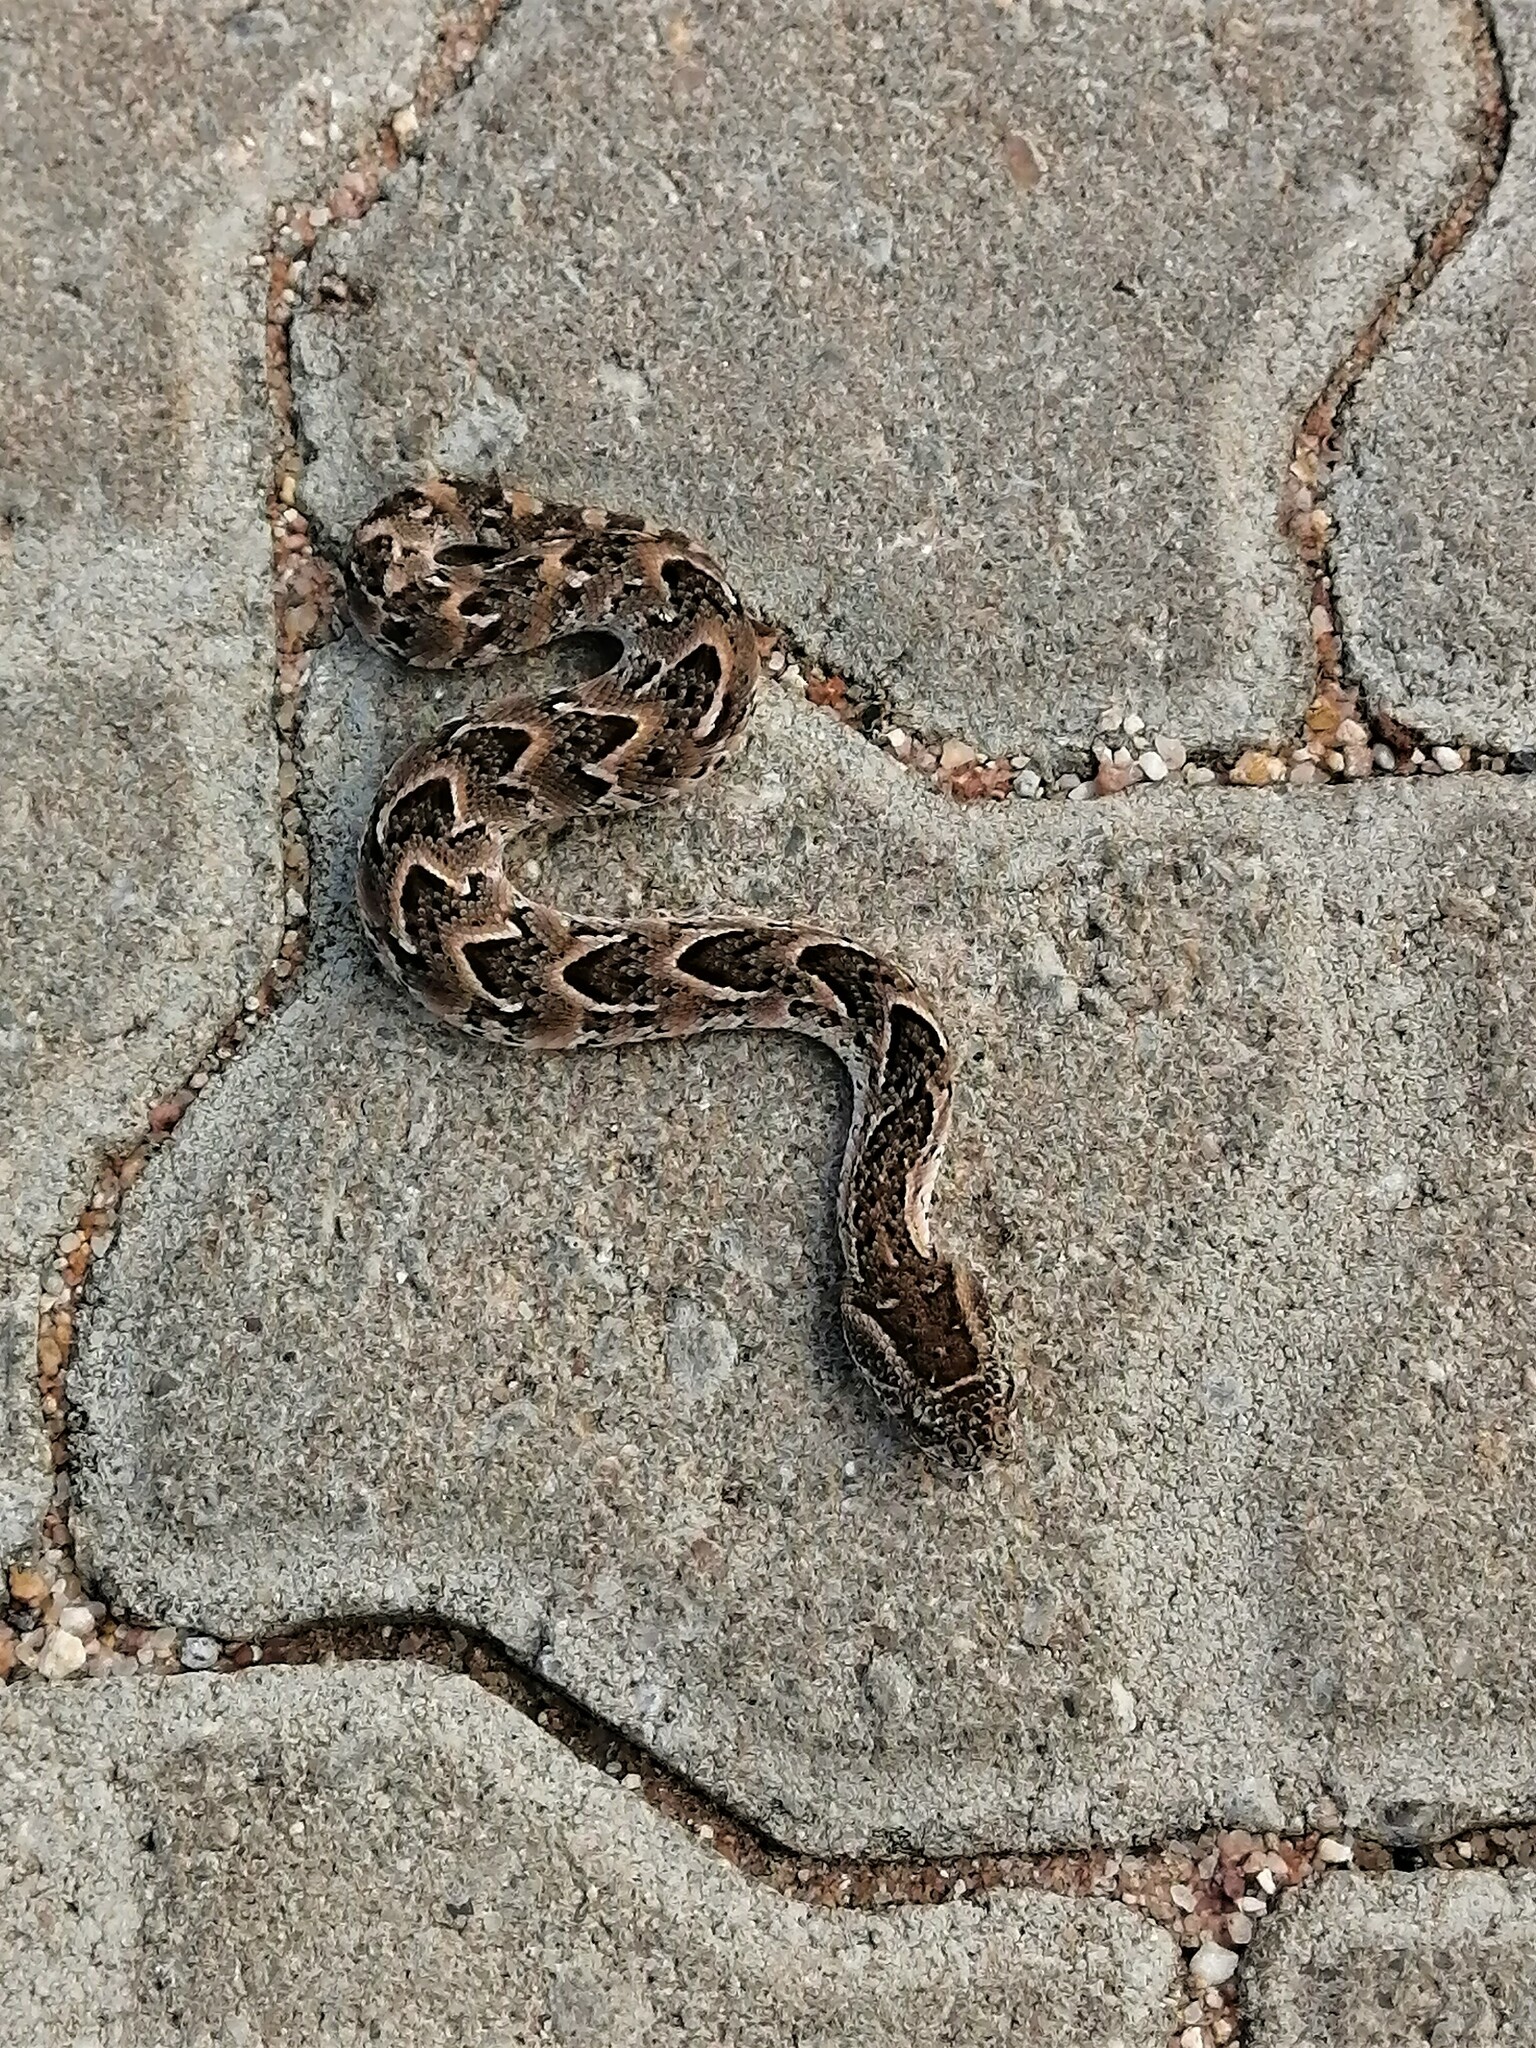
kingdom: Animalia
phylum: Chordata
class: Squamata
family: Viperidae
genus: Bitis
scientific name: Bitis arietans
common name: Puff adder
